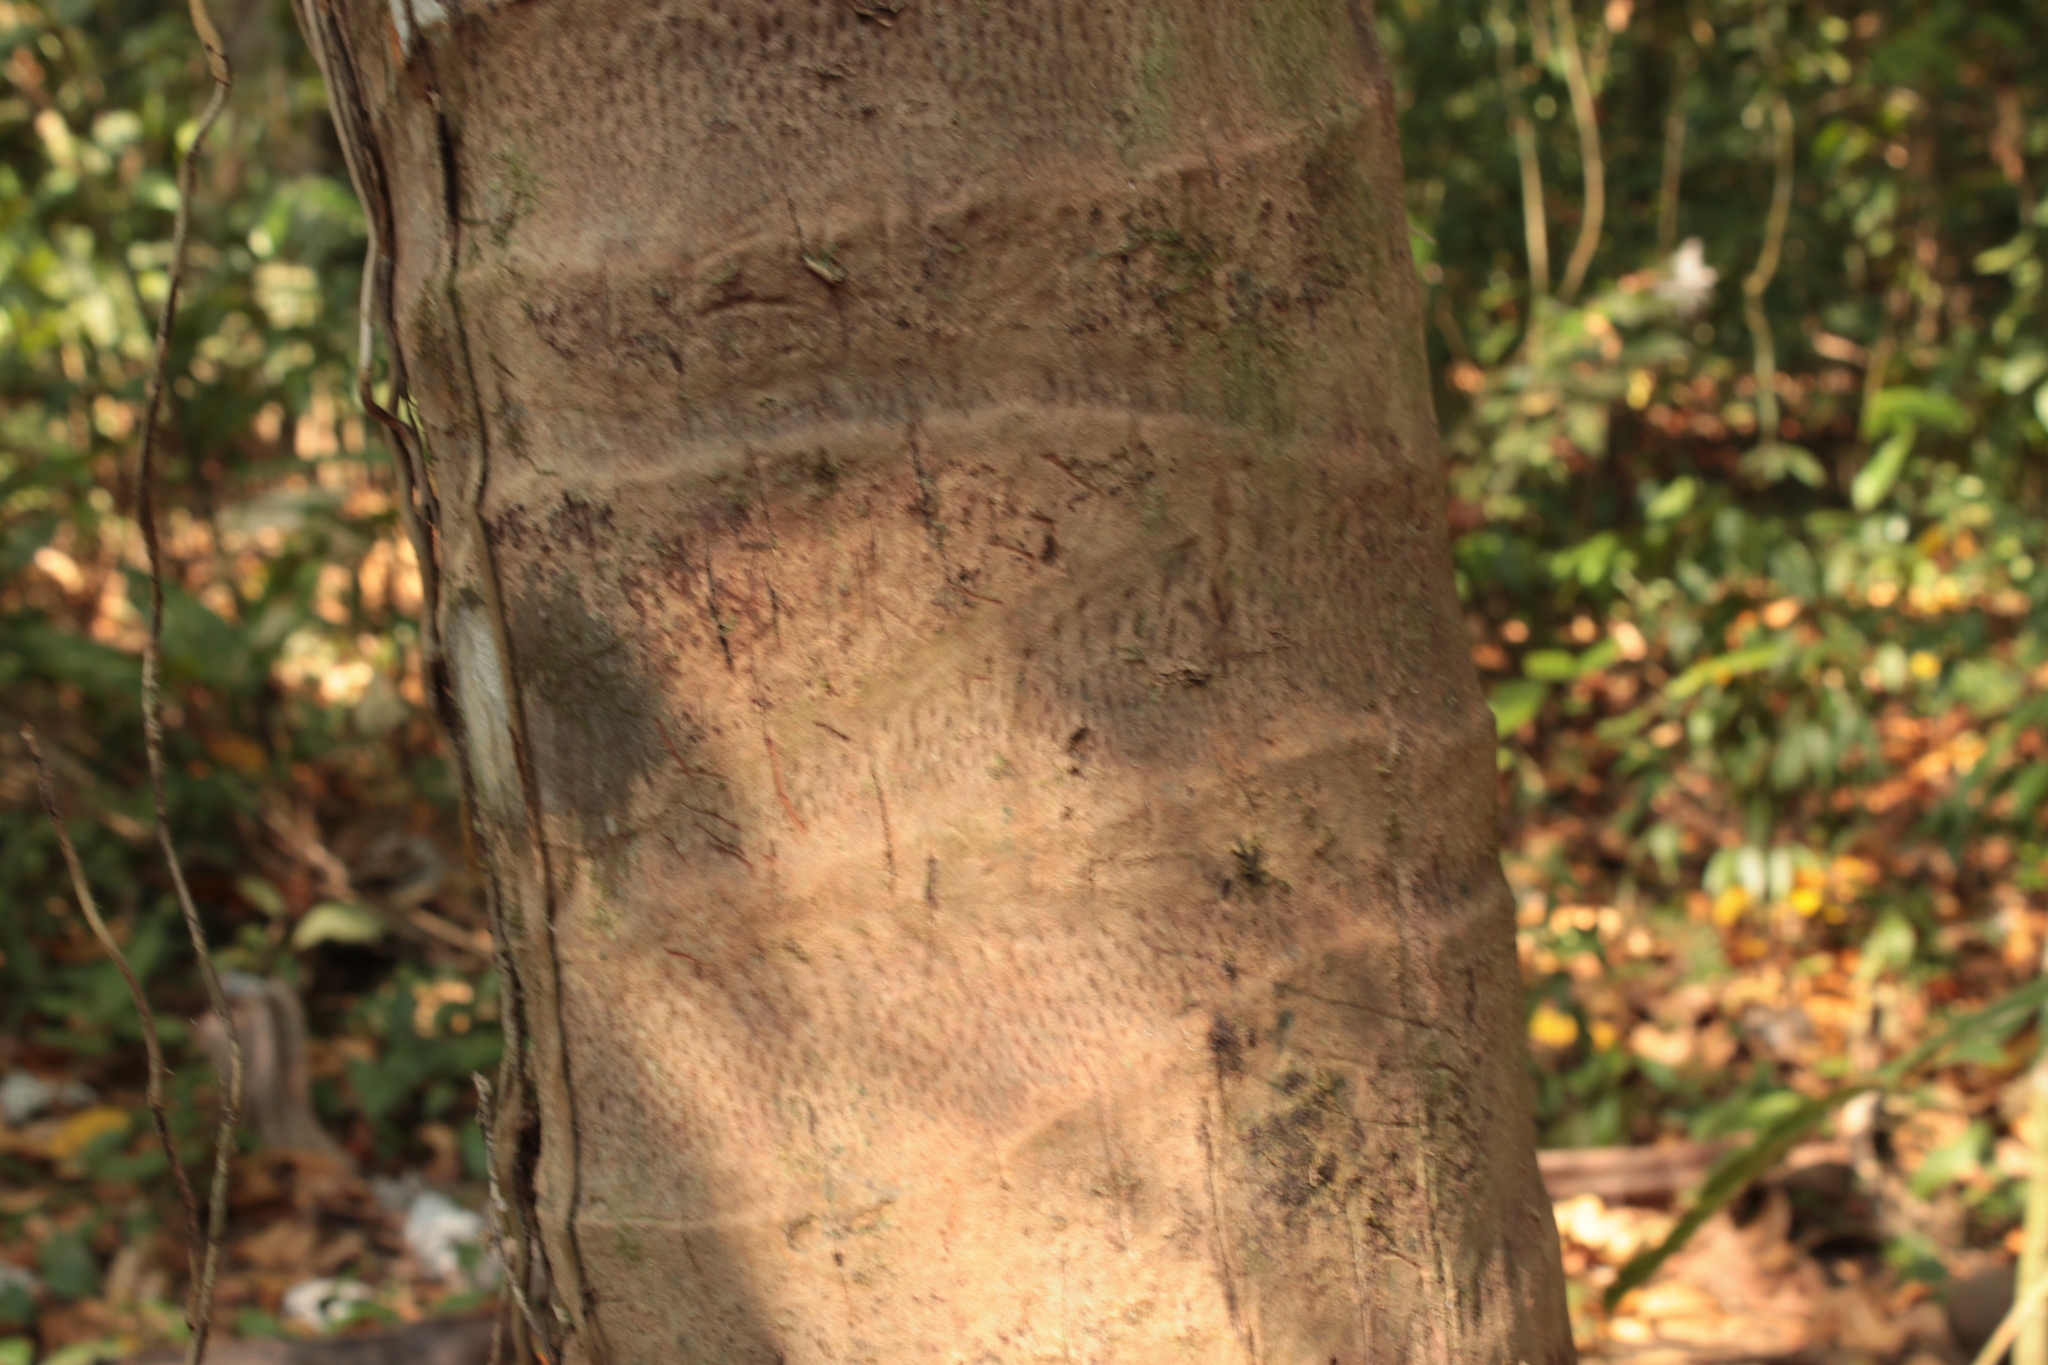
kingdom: Plantae
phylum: Tracheophyta
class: Liliopsida
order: Arecales
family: Arecaceae
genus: Cocos
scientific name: Cocos nucifera
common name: Coconut palm
